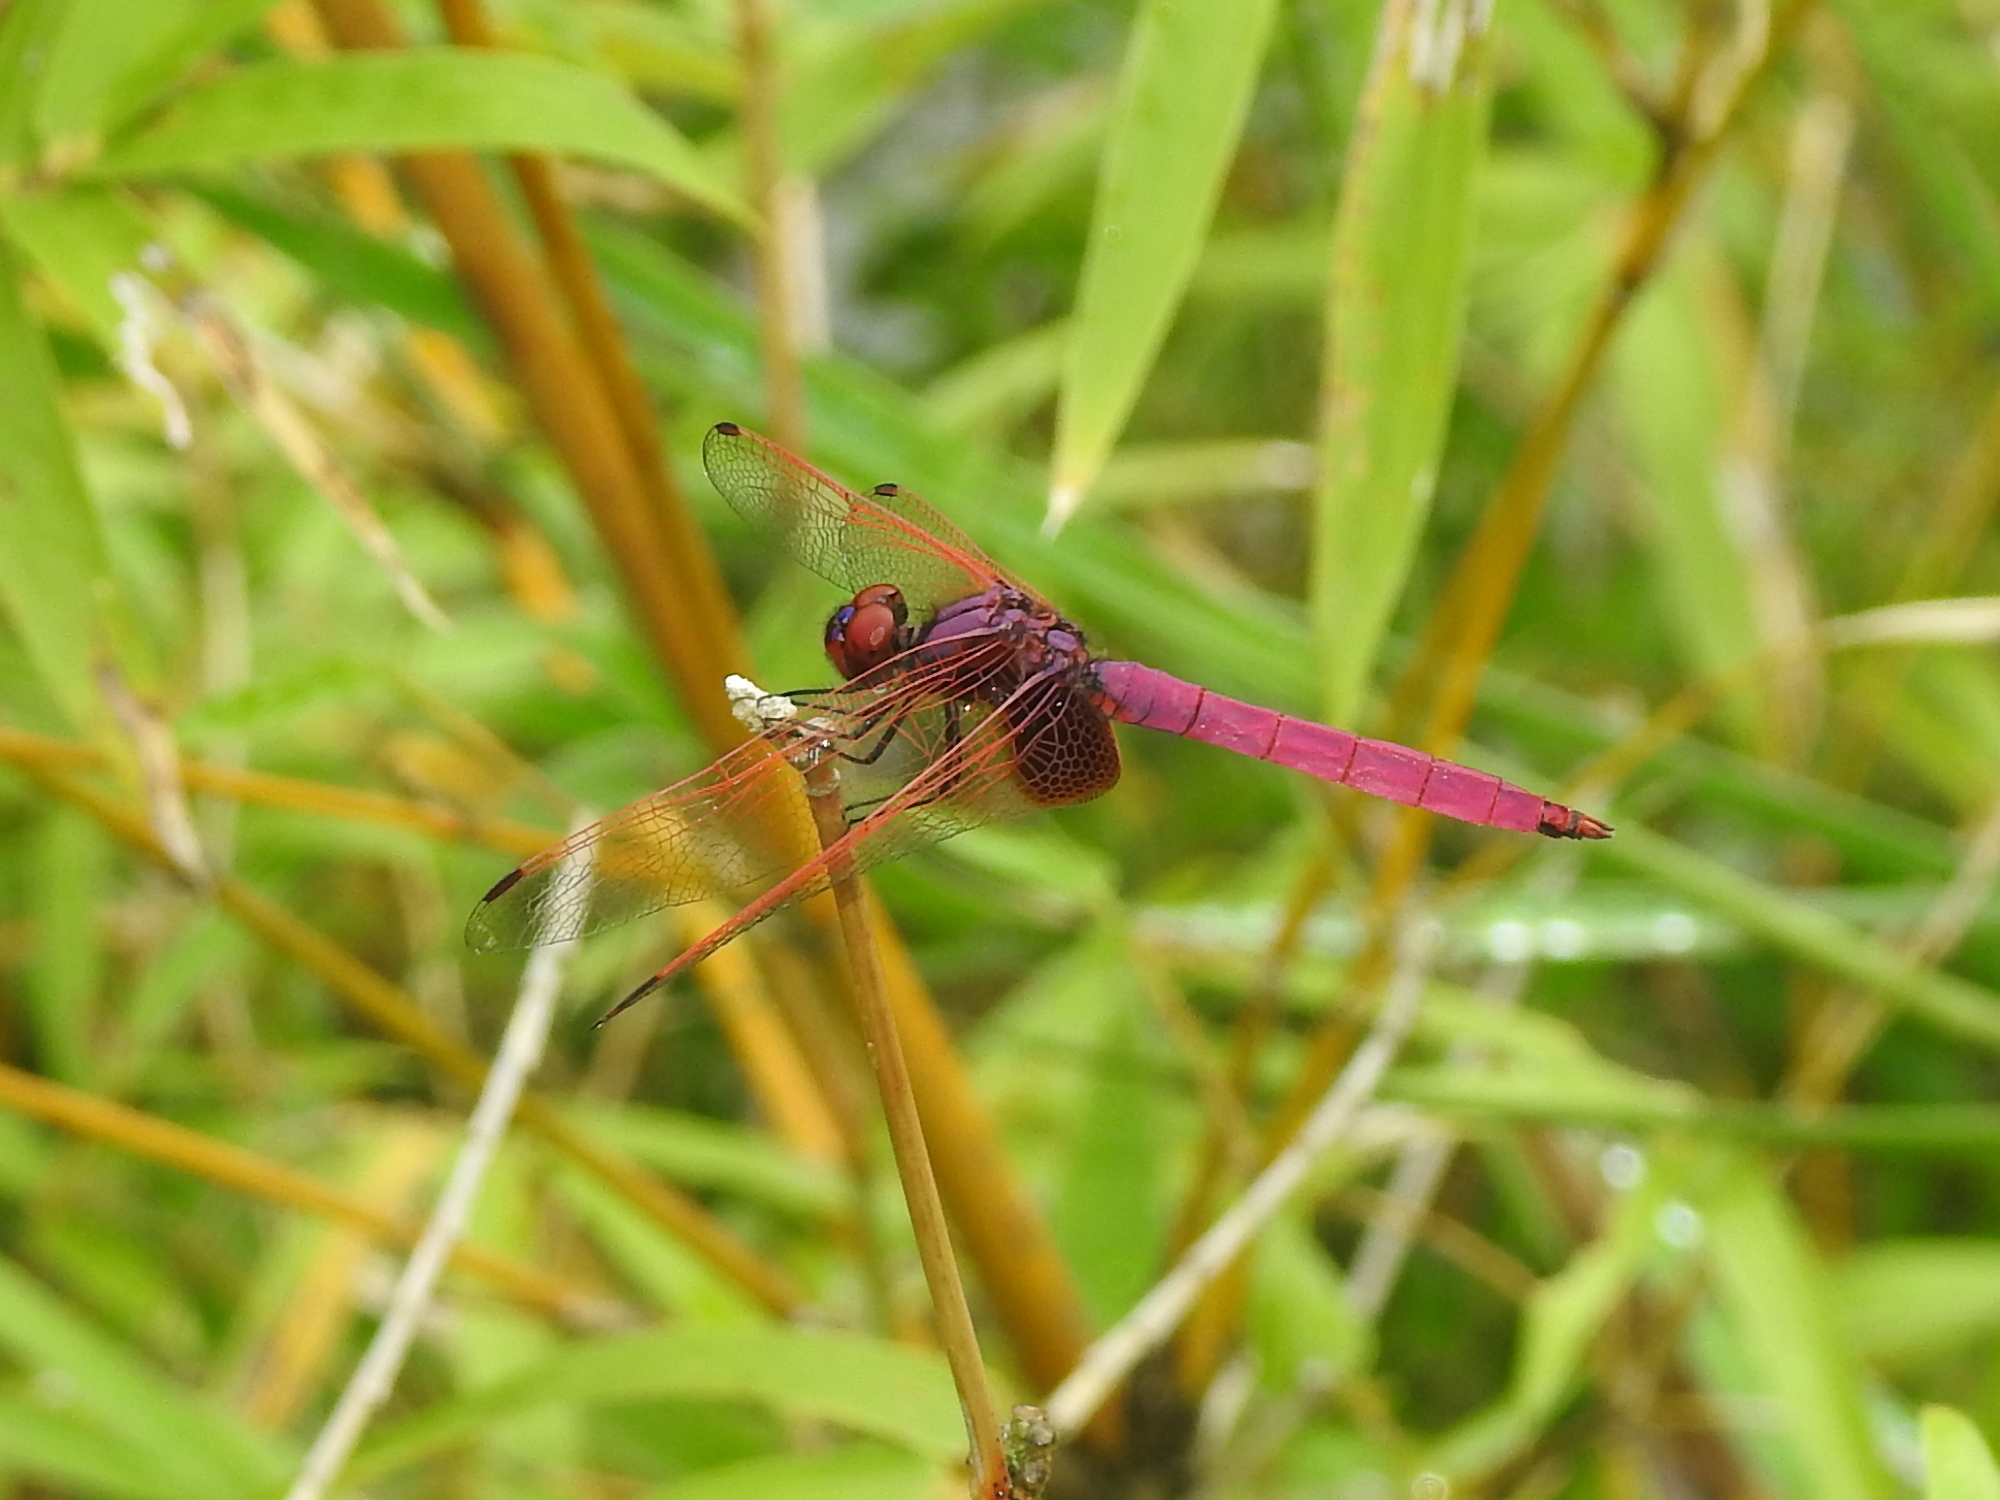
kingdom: Animalia
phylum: Arthropoda
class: Insecta
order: Odonata
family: Libellulidae
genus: Trithemis
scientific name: Trithemis aurora
